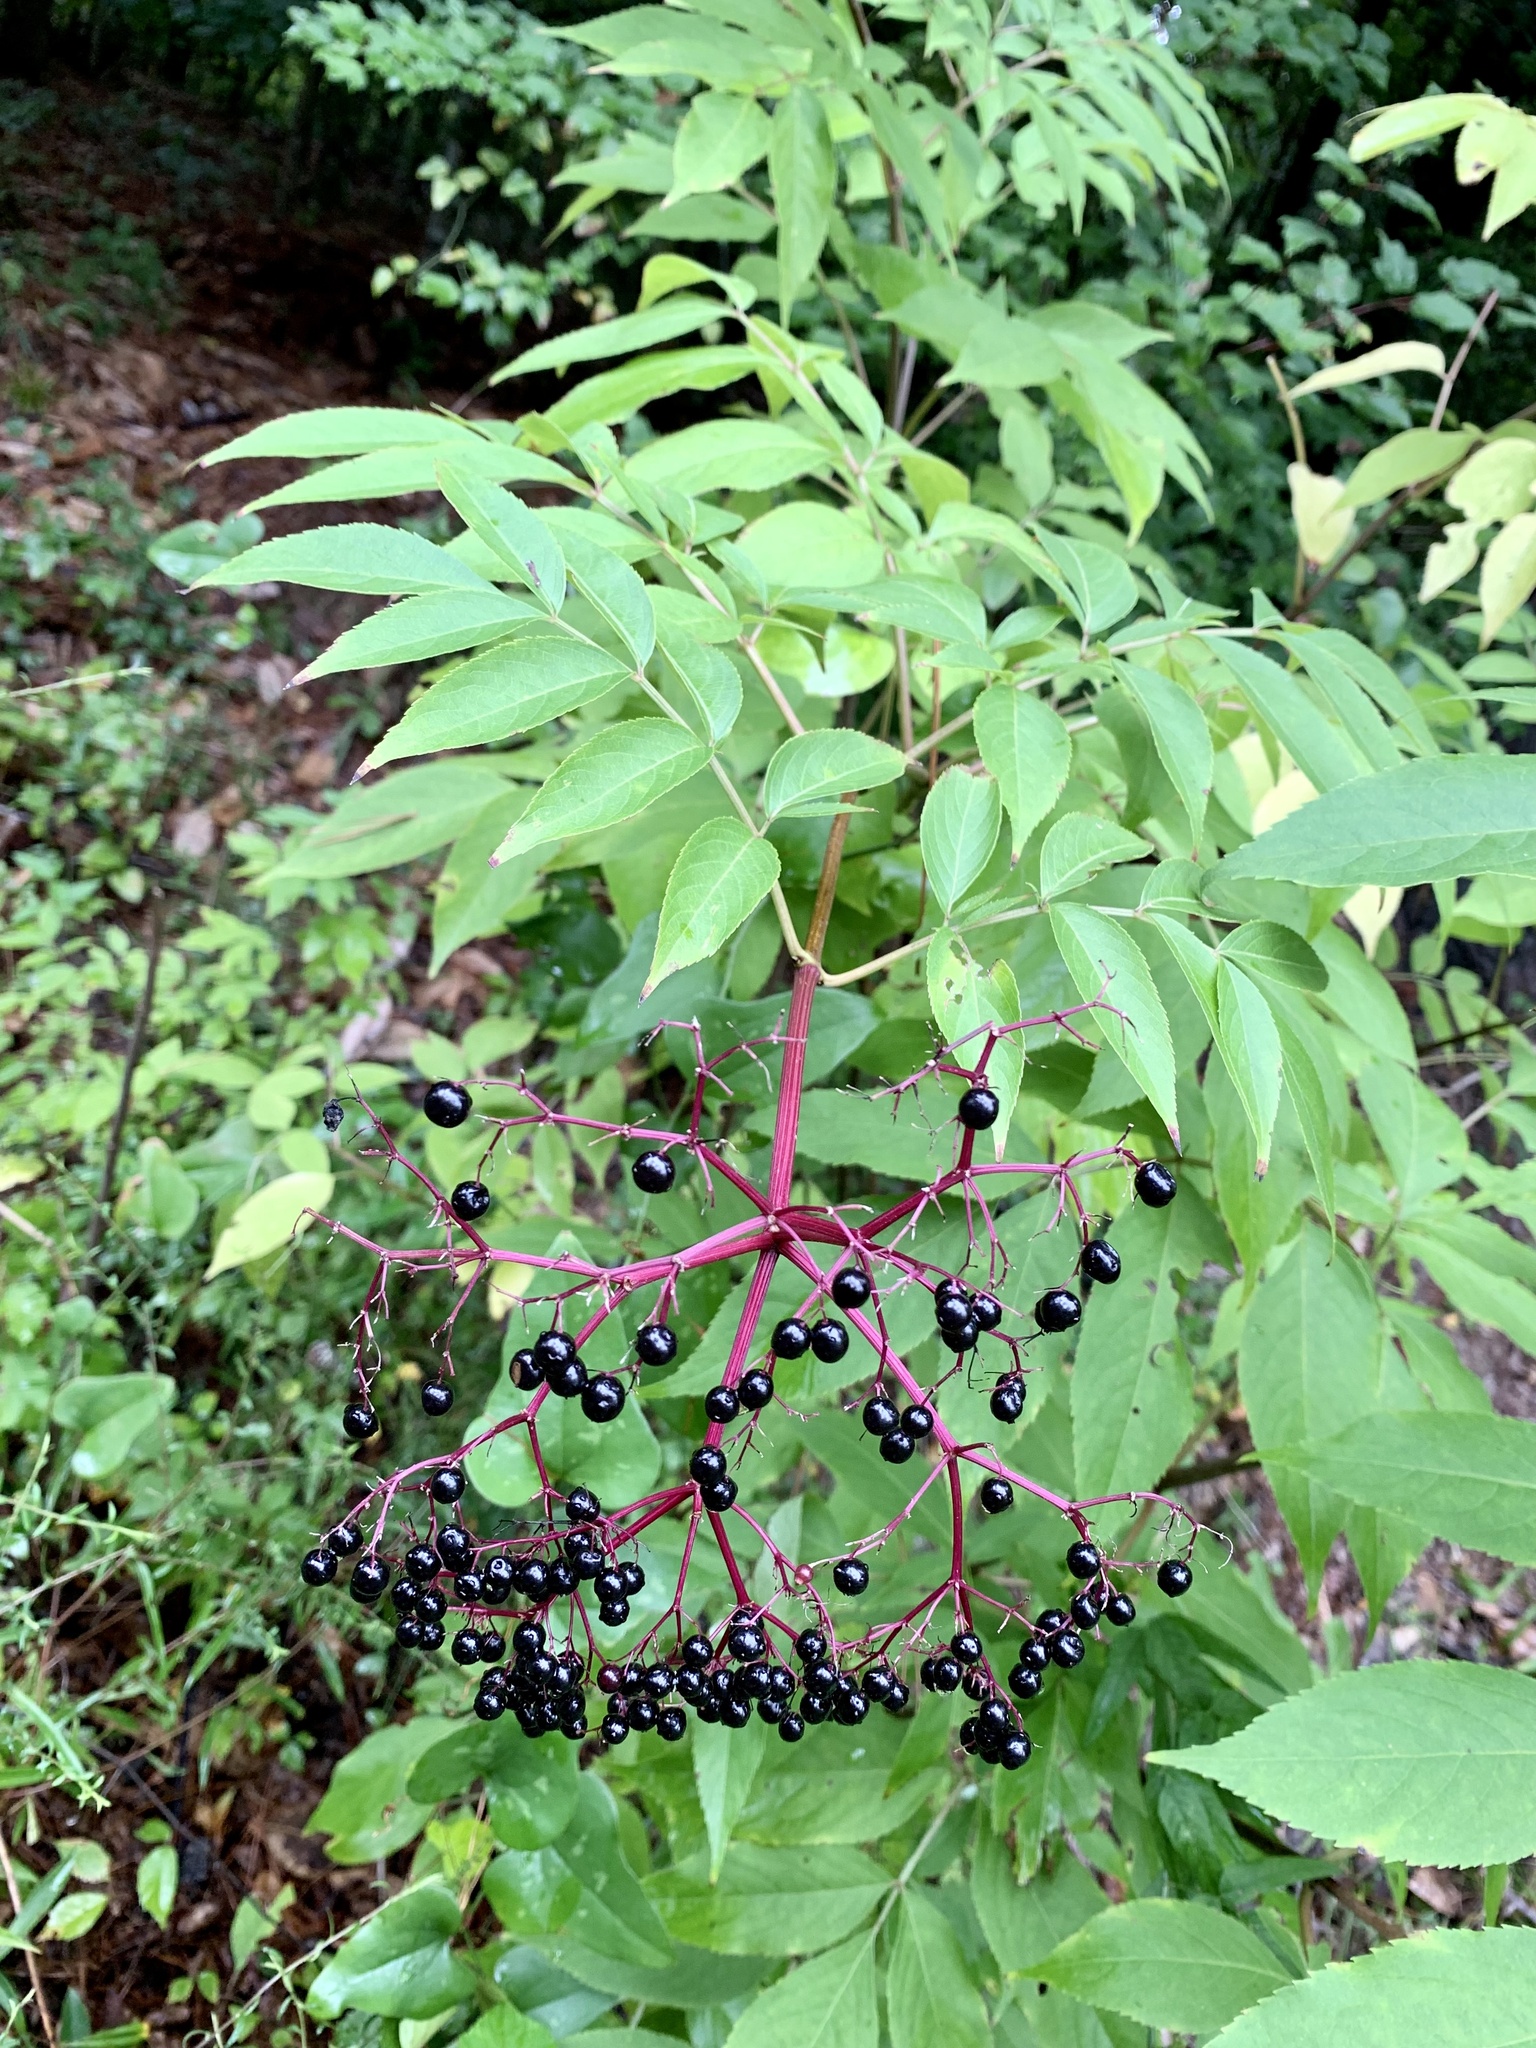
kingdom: Plantae
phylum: Tracheophyta
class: Magnoliopsida
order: Dipsacales
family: Viburnaceae
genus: Sambucus
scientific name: Sambucus canadensis
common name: American elder
